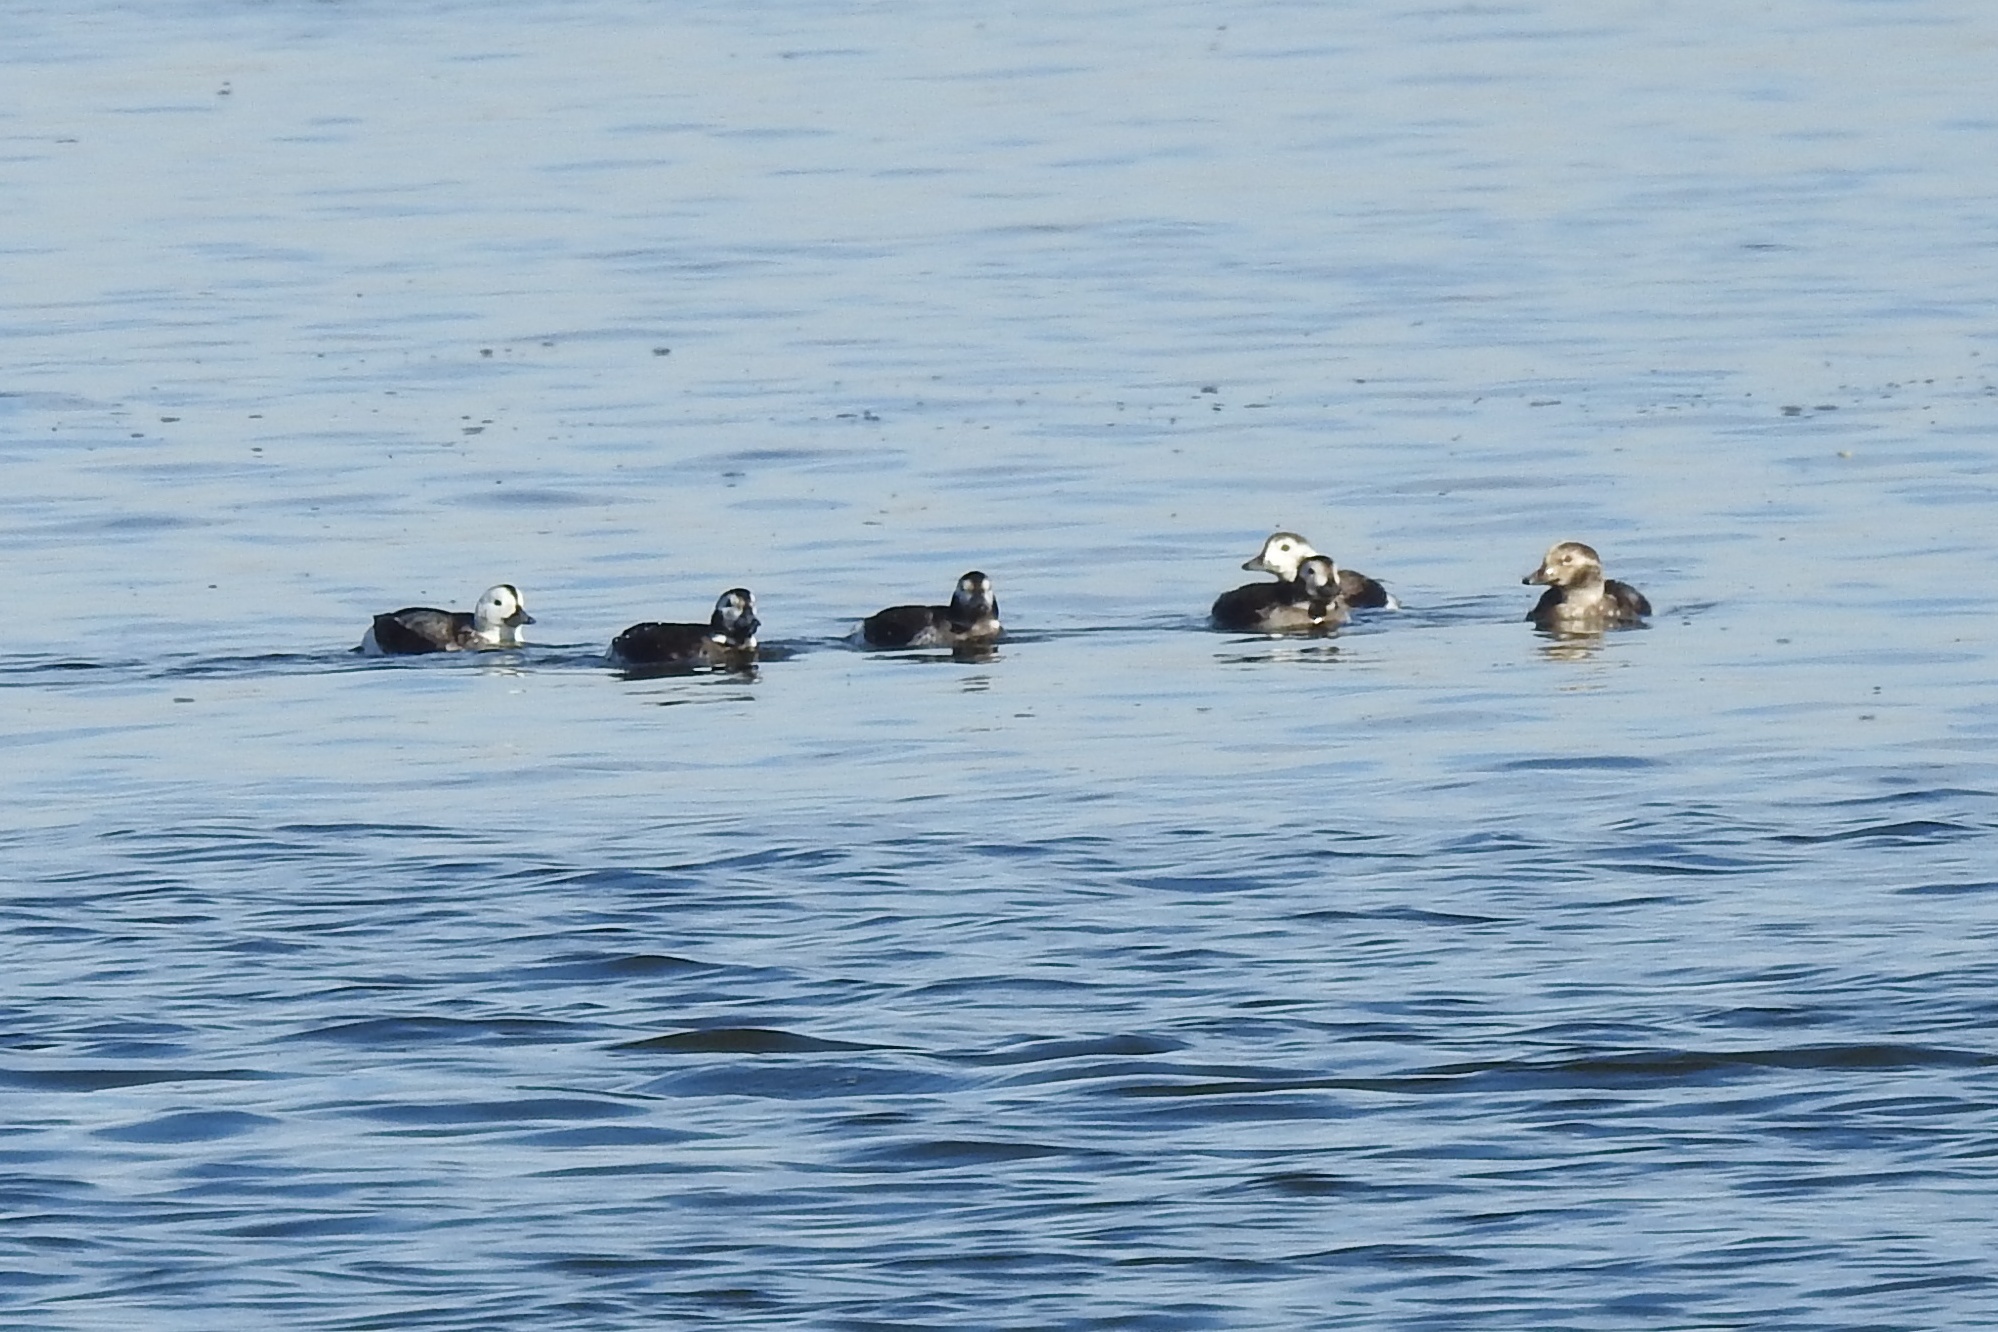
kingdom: Animalia
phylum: Chordata
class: Aves
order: Anseriformes
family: Anatidae
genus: Clangula
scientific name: Clangula hyemalis
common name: Long-tailed duck
